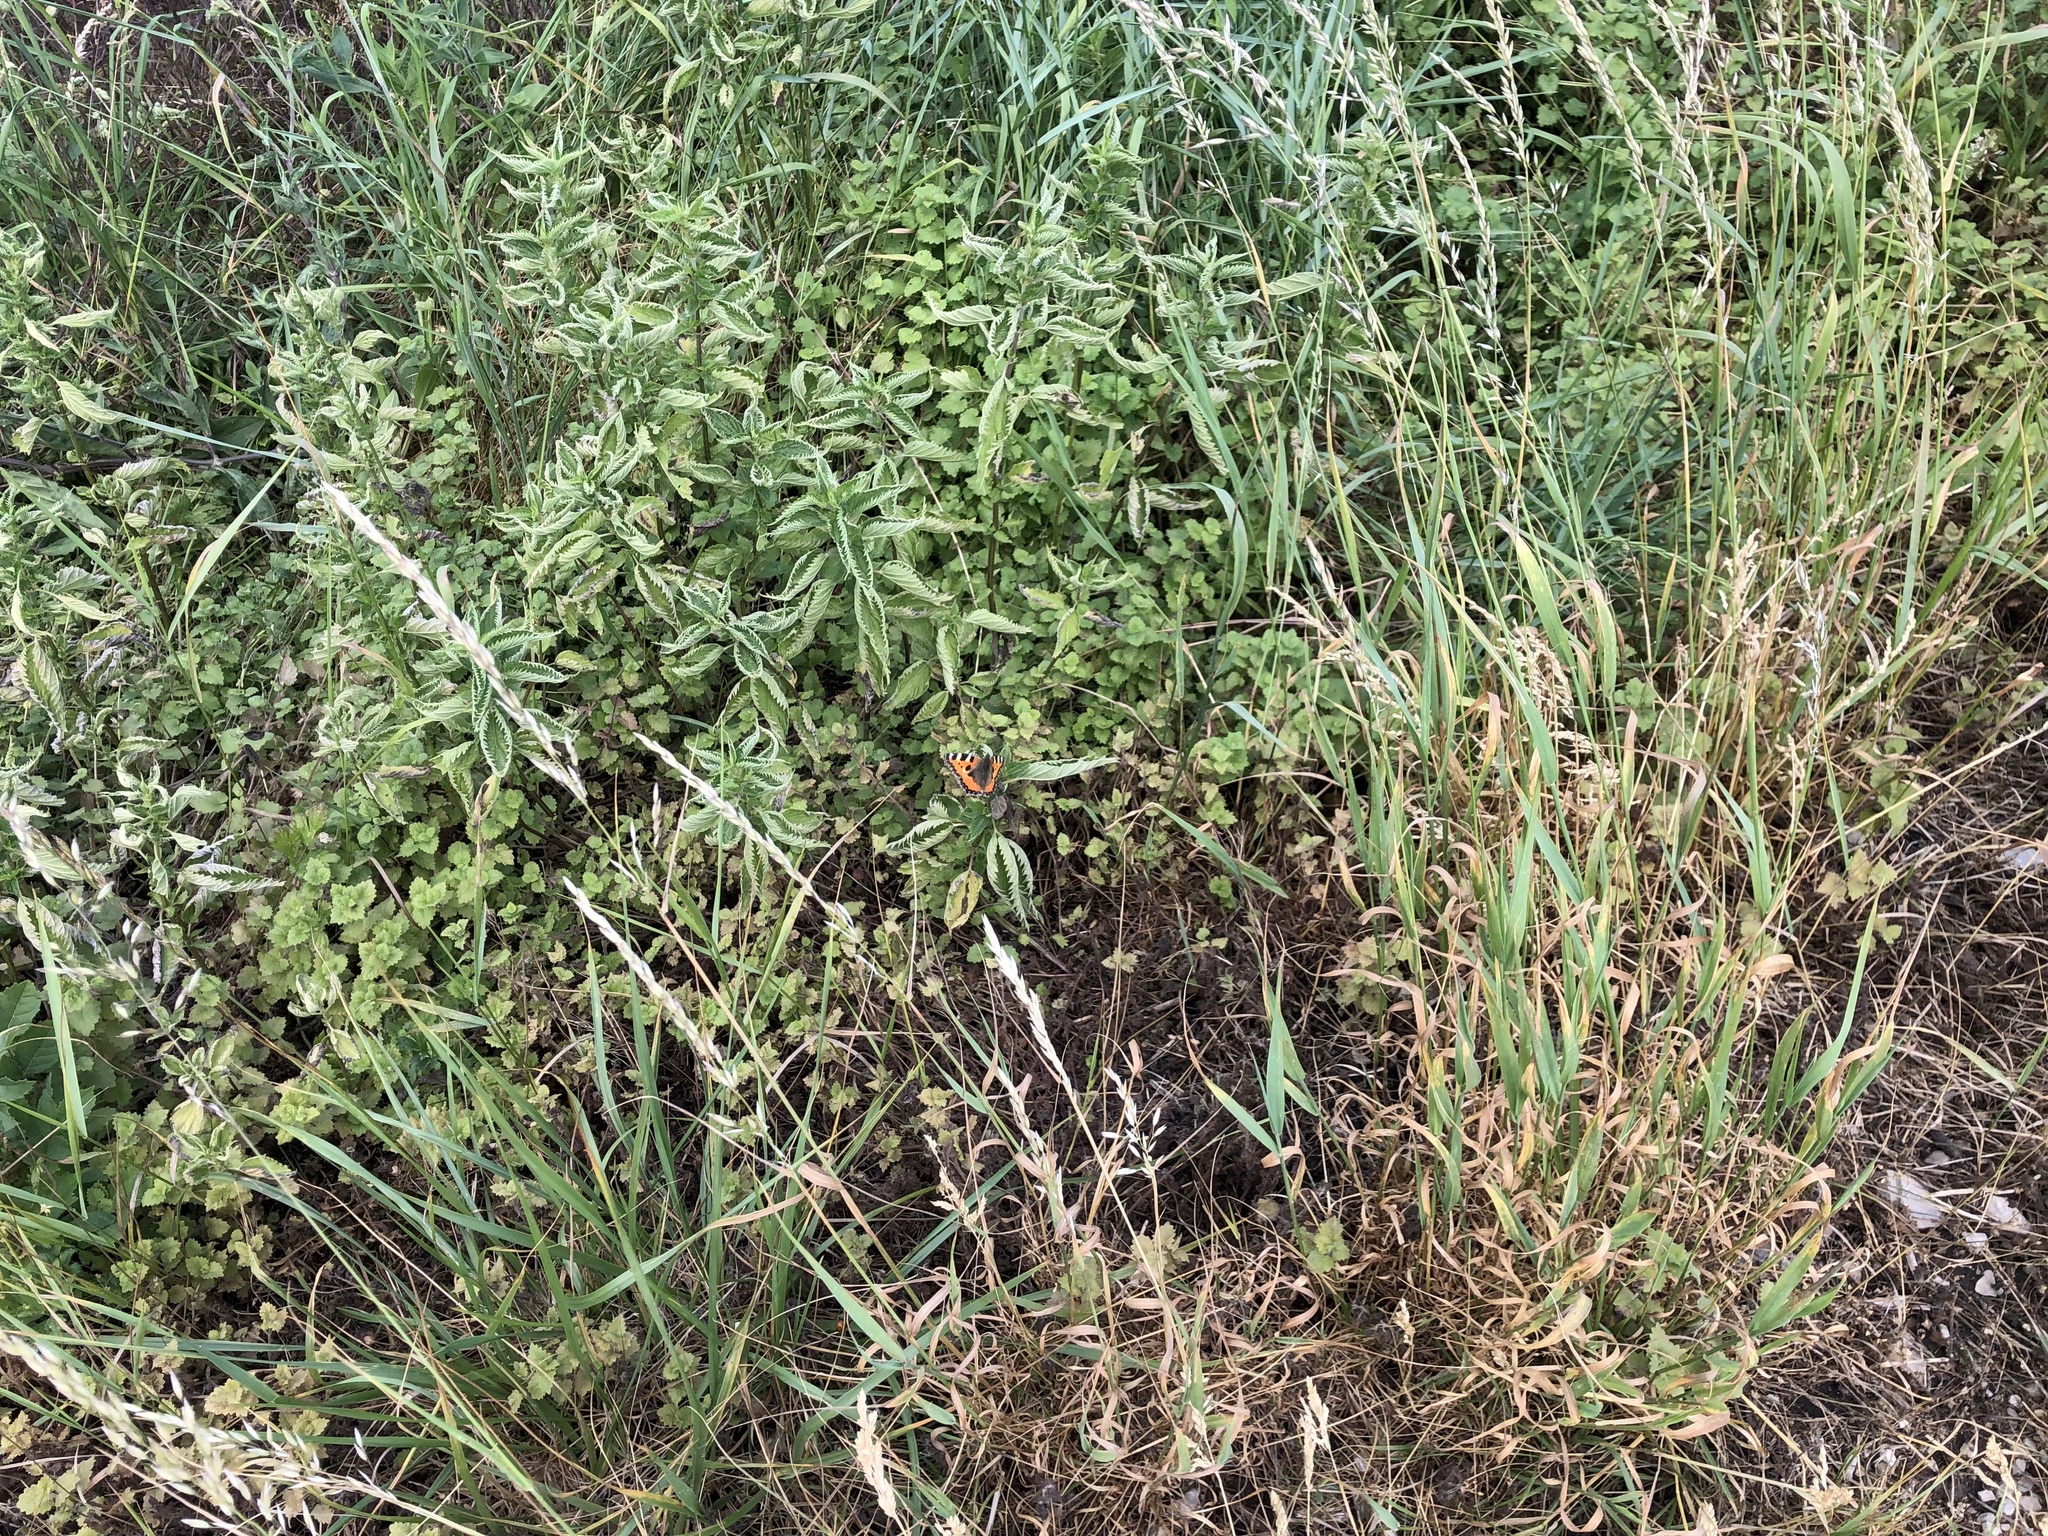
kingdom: Animalia
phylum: Arthropoda
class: Insecta
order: Lepidoptera
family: Nymphalidae
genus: Aglais
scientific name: Aglais urticae
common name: Small tortoiseshell
